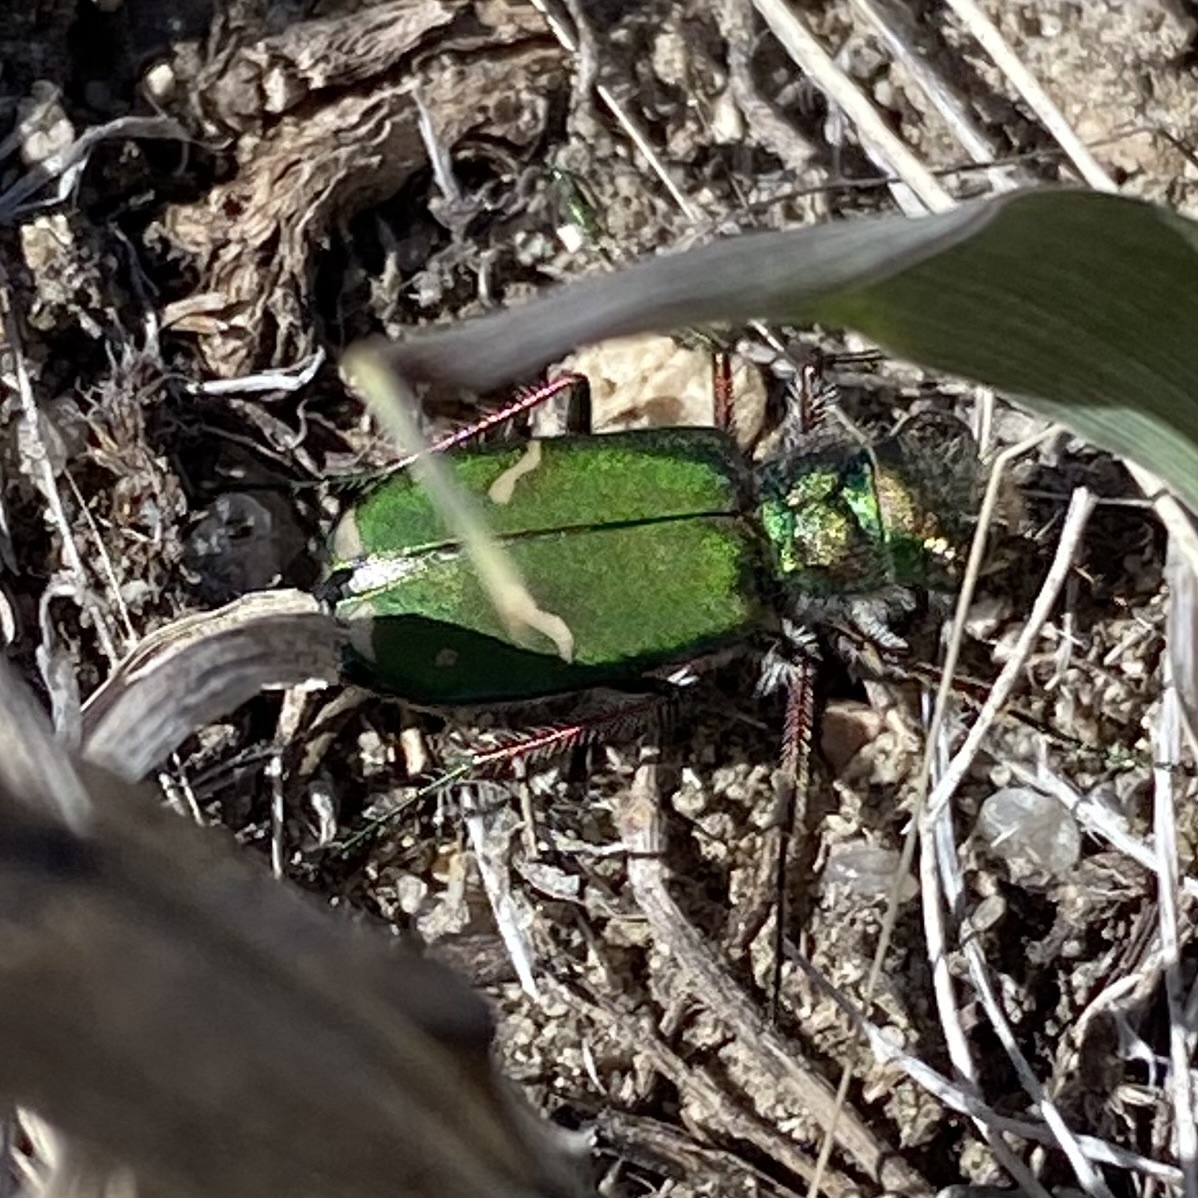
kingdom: Animalia
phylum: Arthropoda
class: Insecta
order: Coleoptera
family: Carabidae
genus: Cicindela
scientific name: Cicindela purpurea
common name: Cow path tiger beetle
